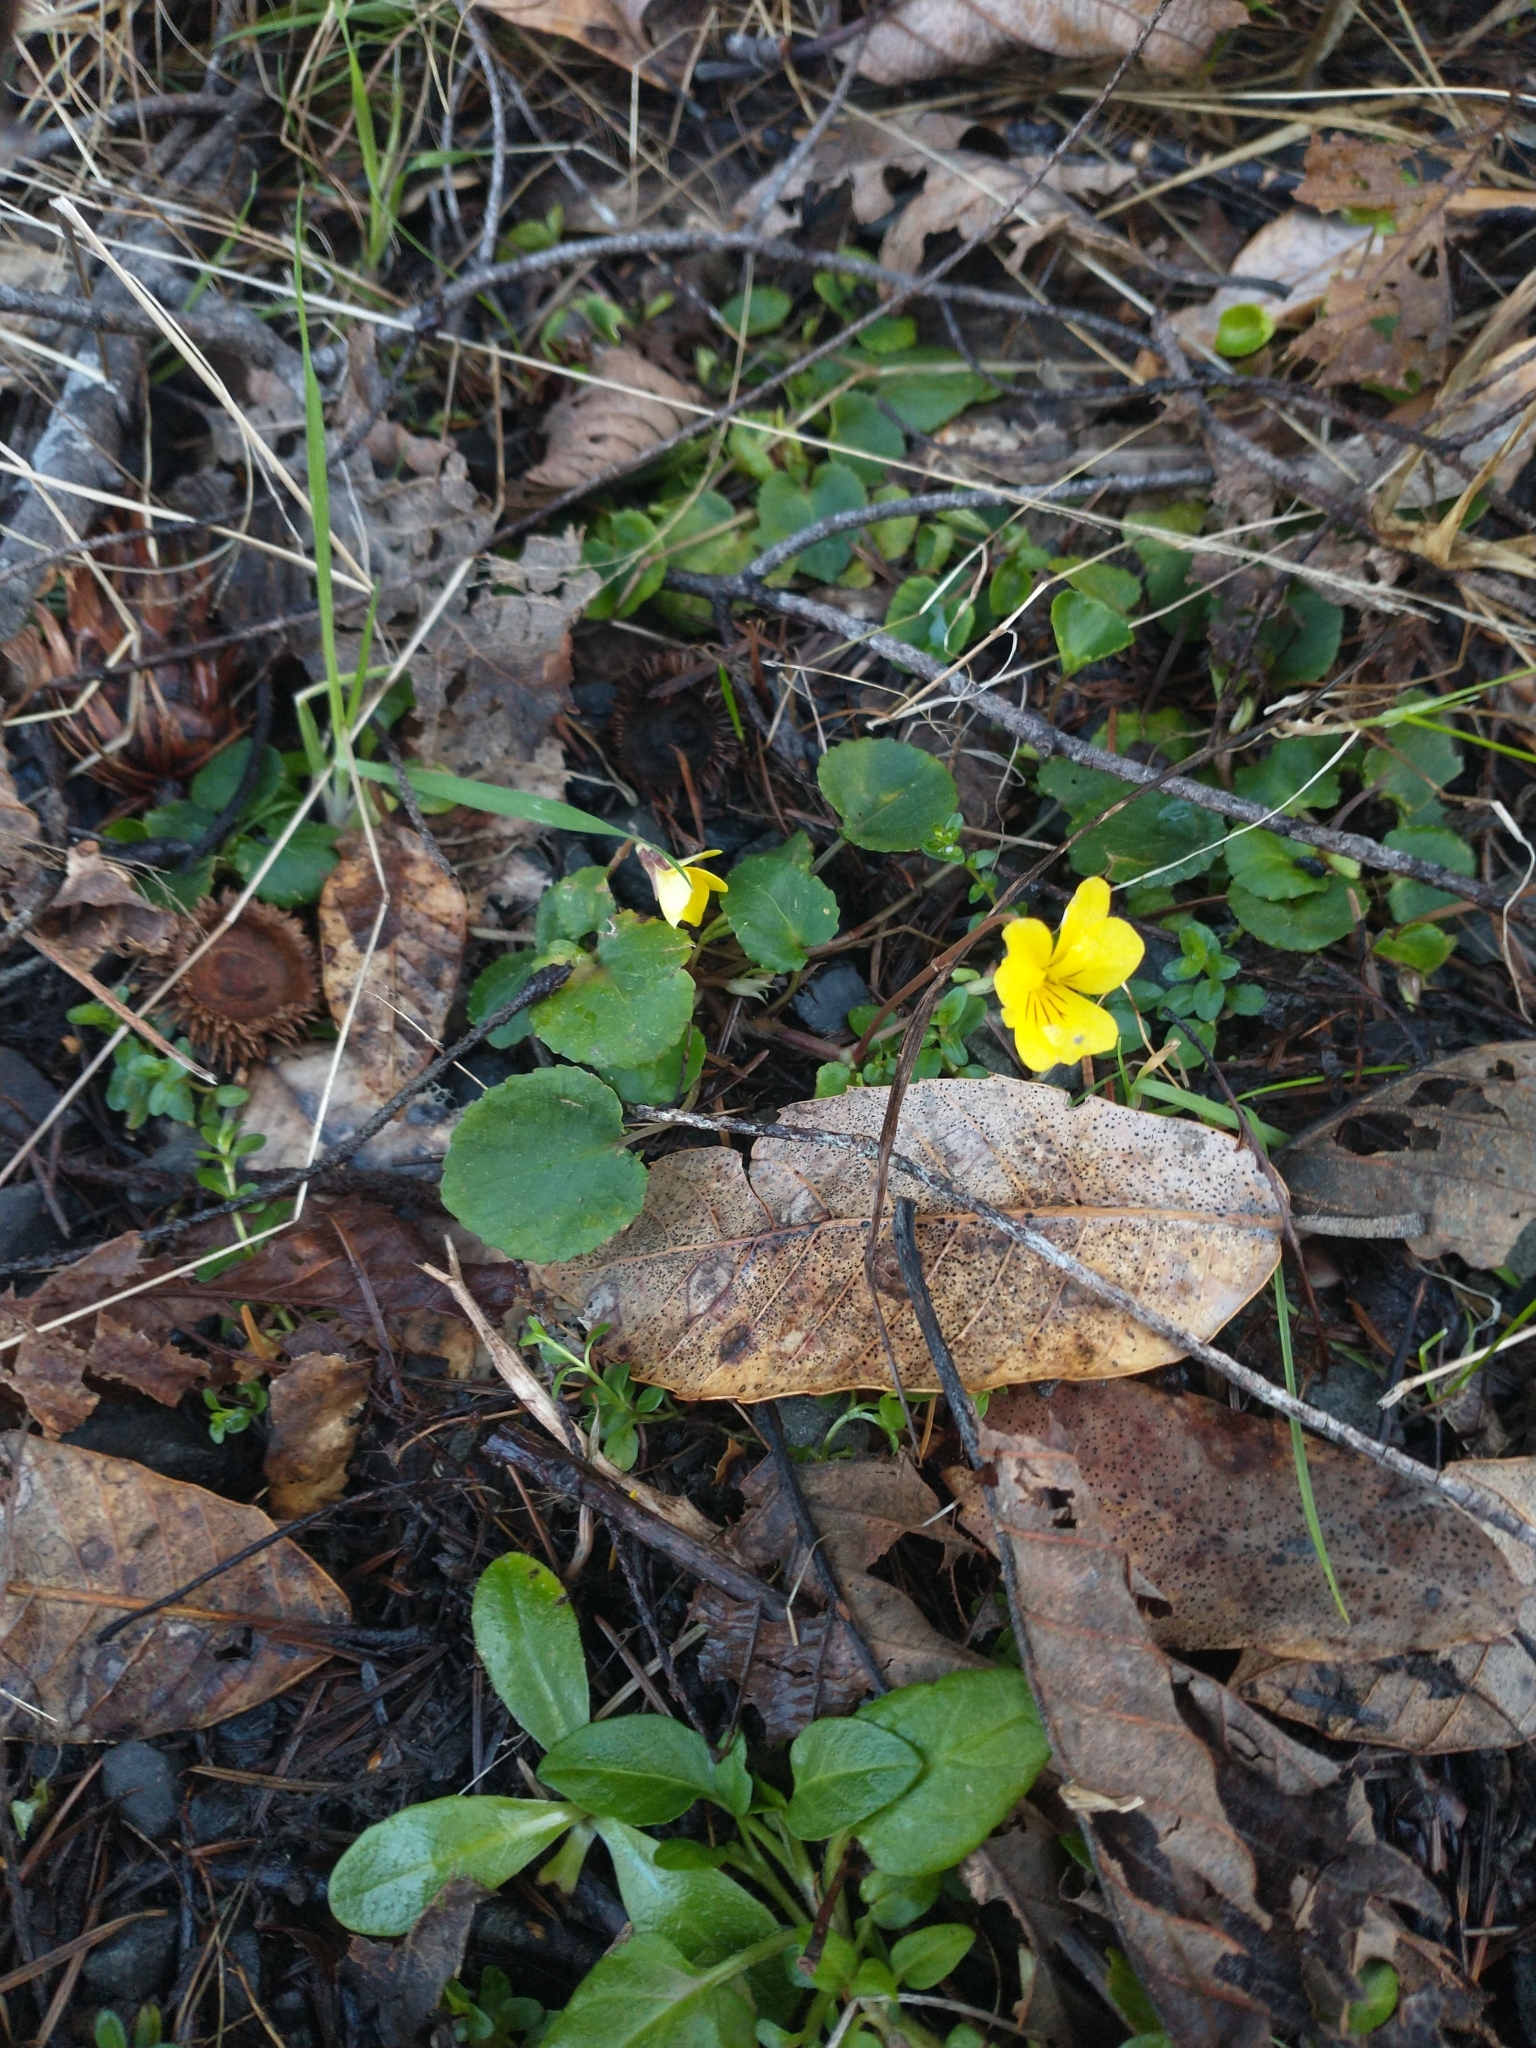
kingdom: Plantae
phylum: Tracheophyta
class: Magnoliopsida
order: Malpighiales
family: Violaceae
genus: Viola
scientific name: Viola sempervirens
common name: Evergreen violet
